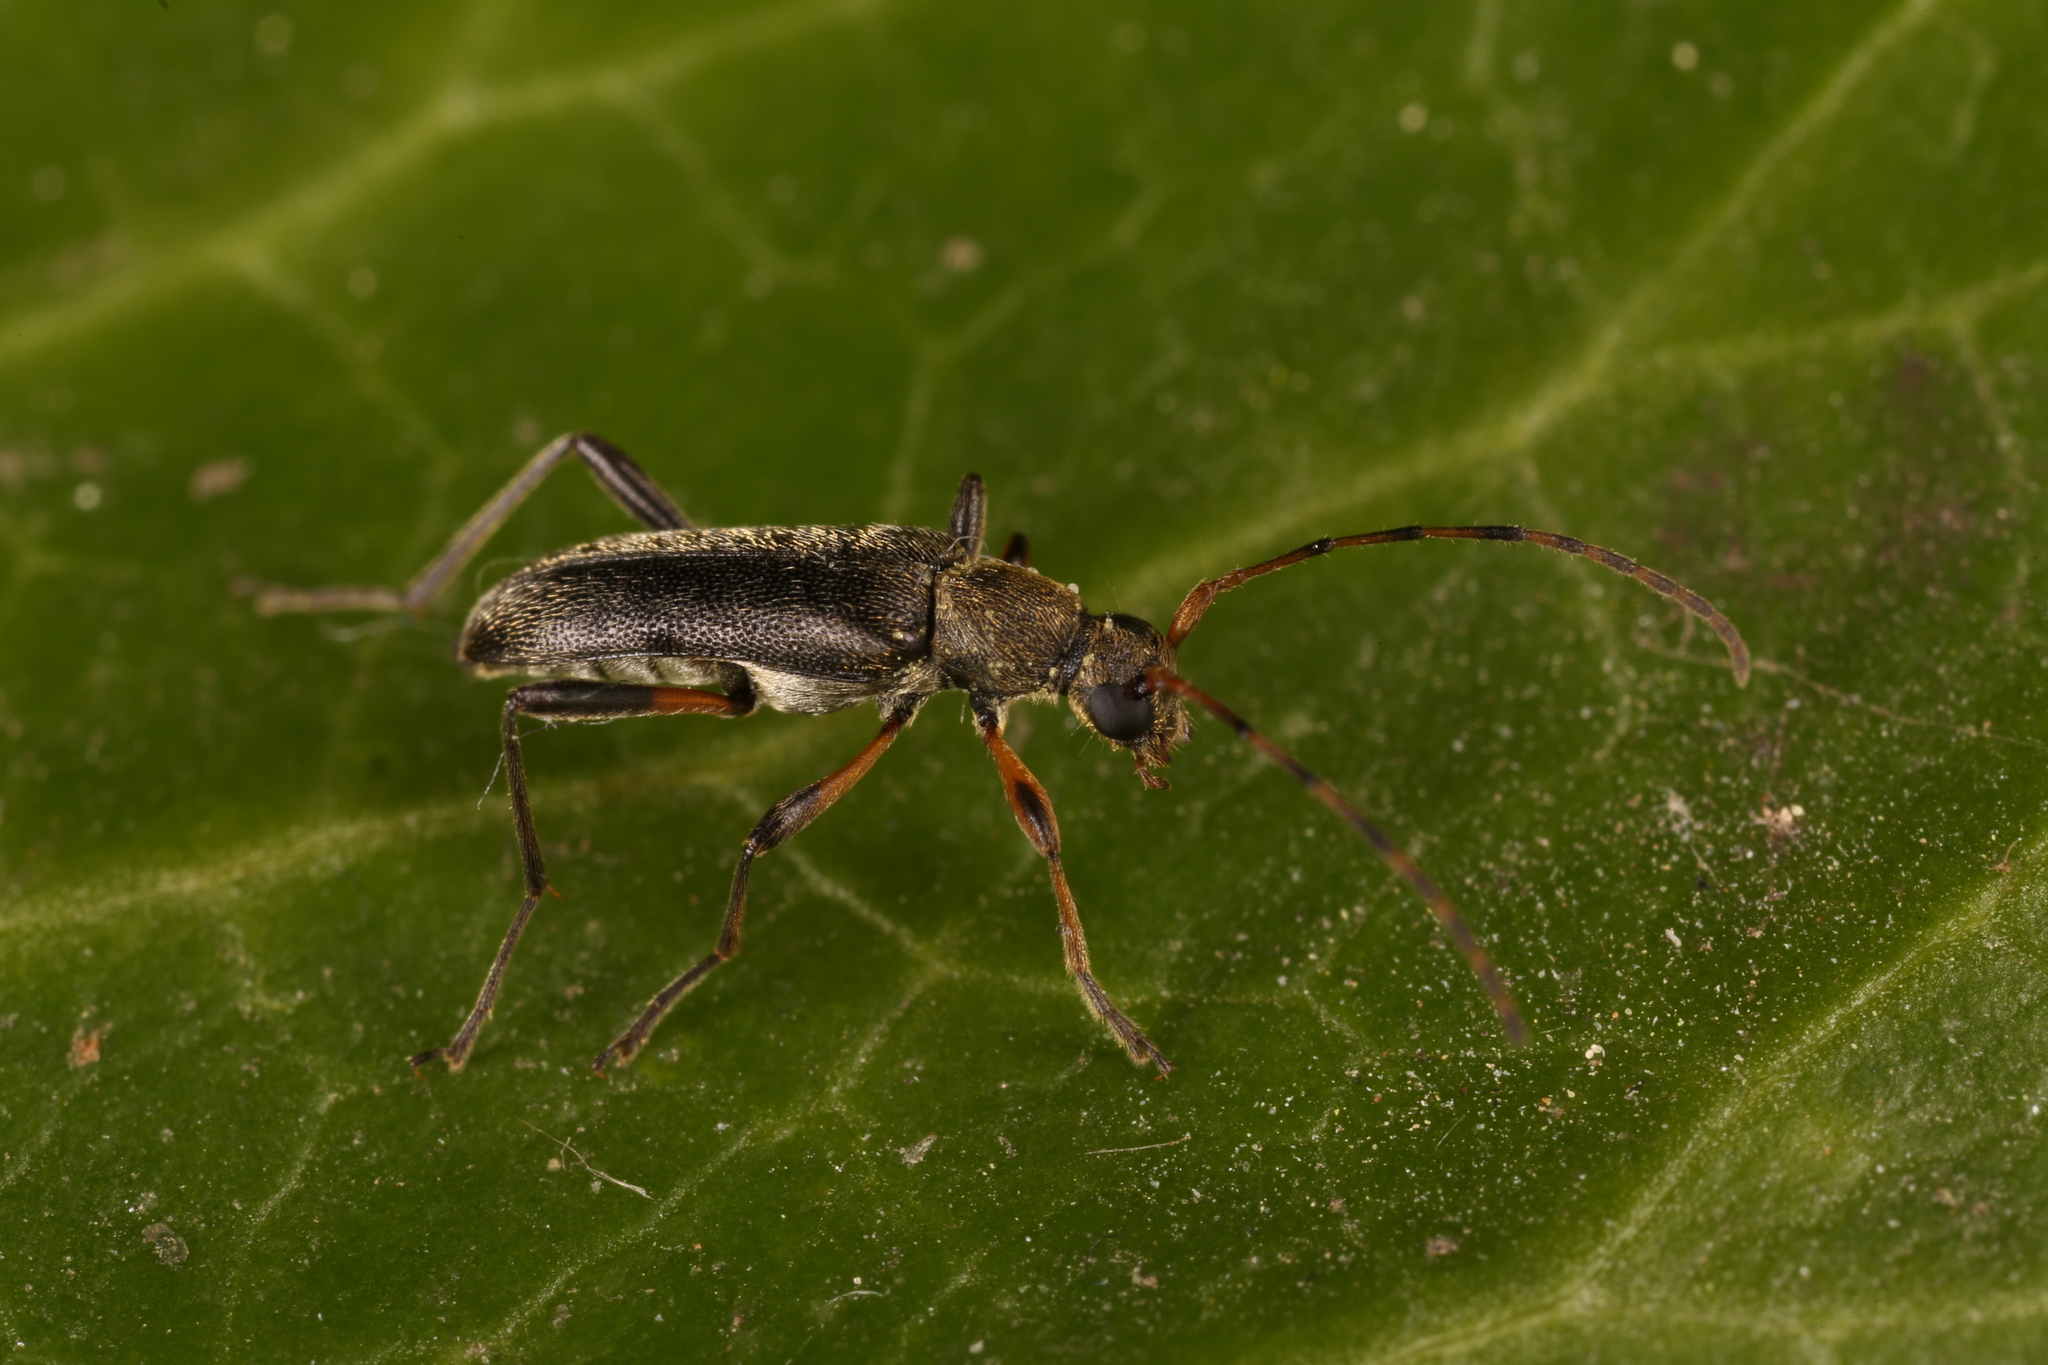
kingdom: Animalia
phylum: Arthropoda
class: Insecta
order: Coleoptera
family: Cerambycidae
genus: Grammoptera
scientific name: Grammoptera ruficornis
